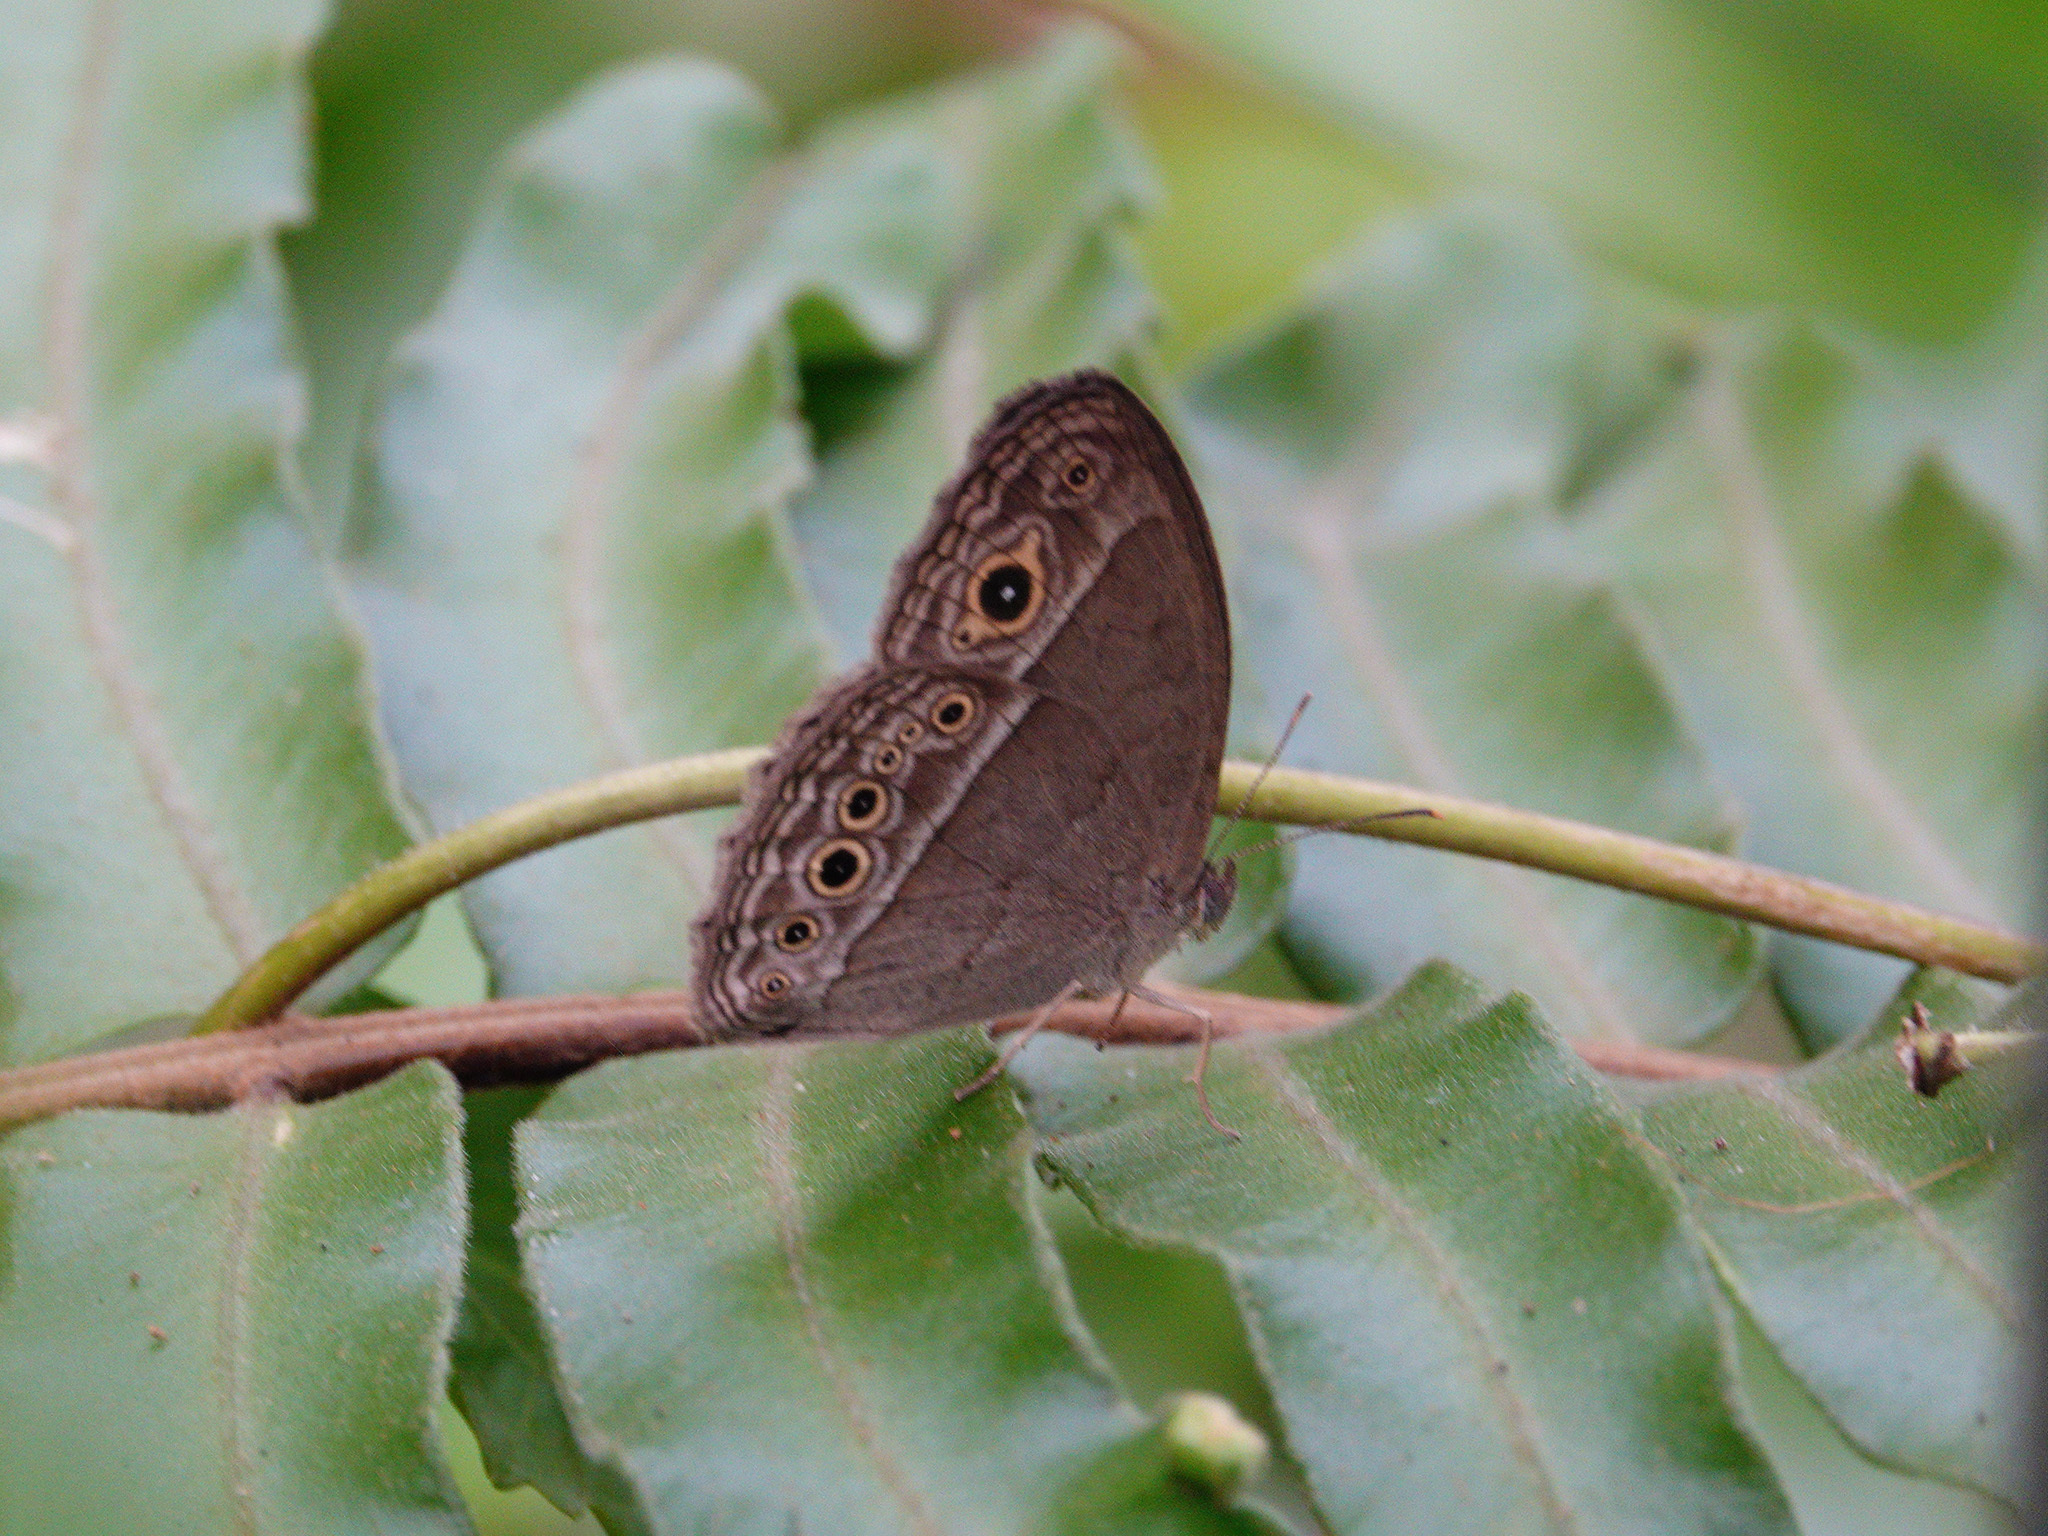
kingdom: Animalia
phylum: Arthropoda
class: Insecta
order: Lepidoptera
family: Nymphalidae
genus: Mycalesis
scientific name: Mycalesis perseoides
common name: Burmese bushbrown
